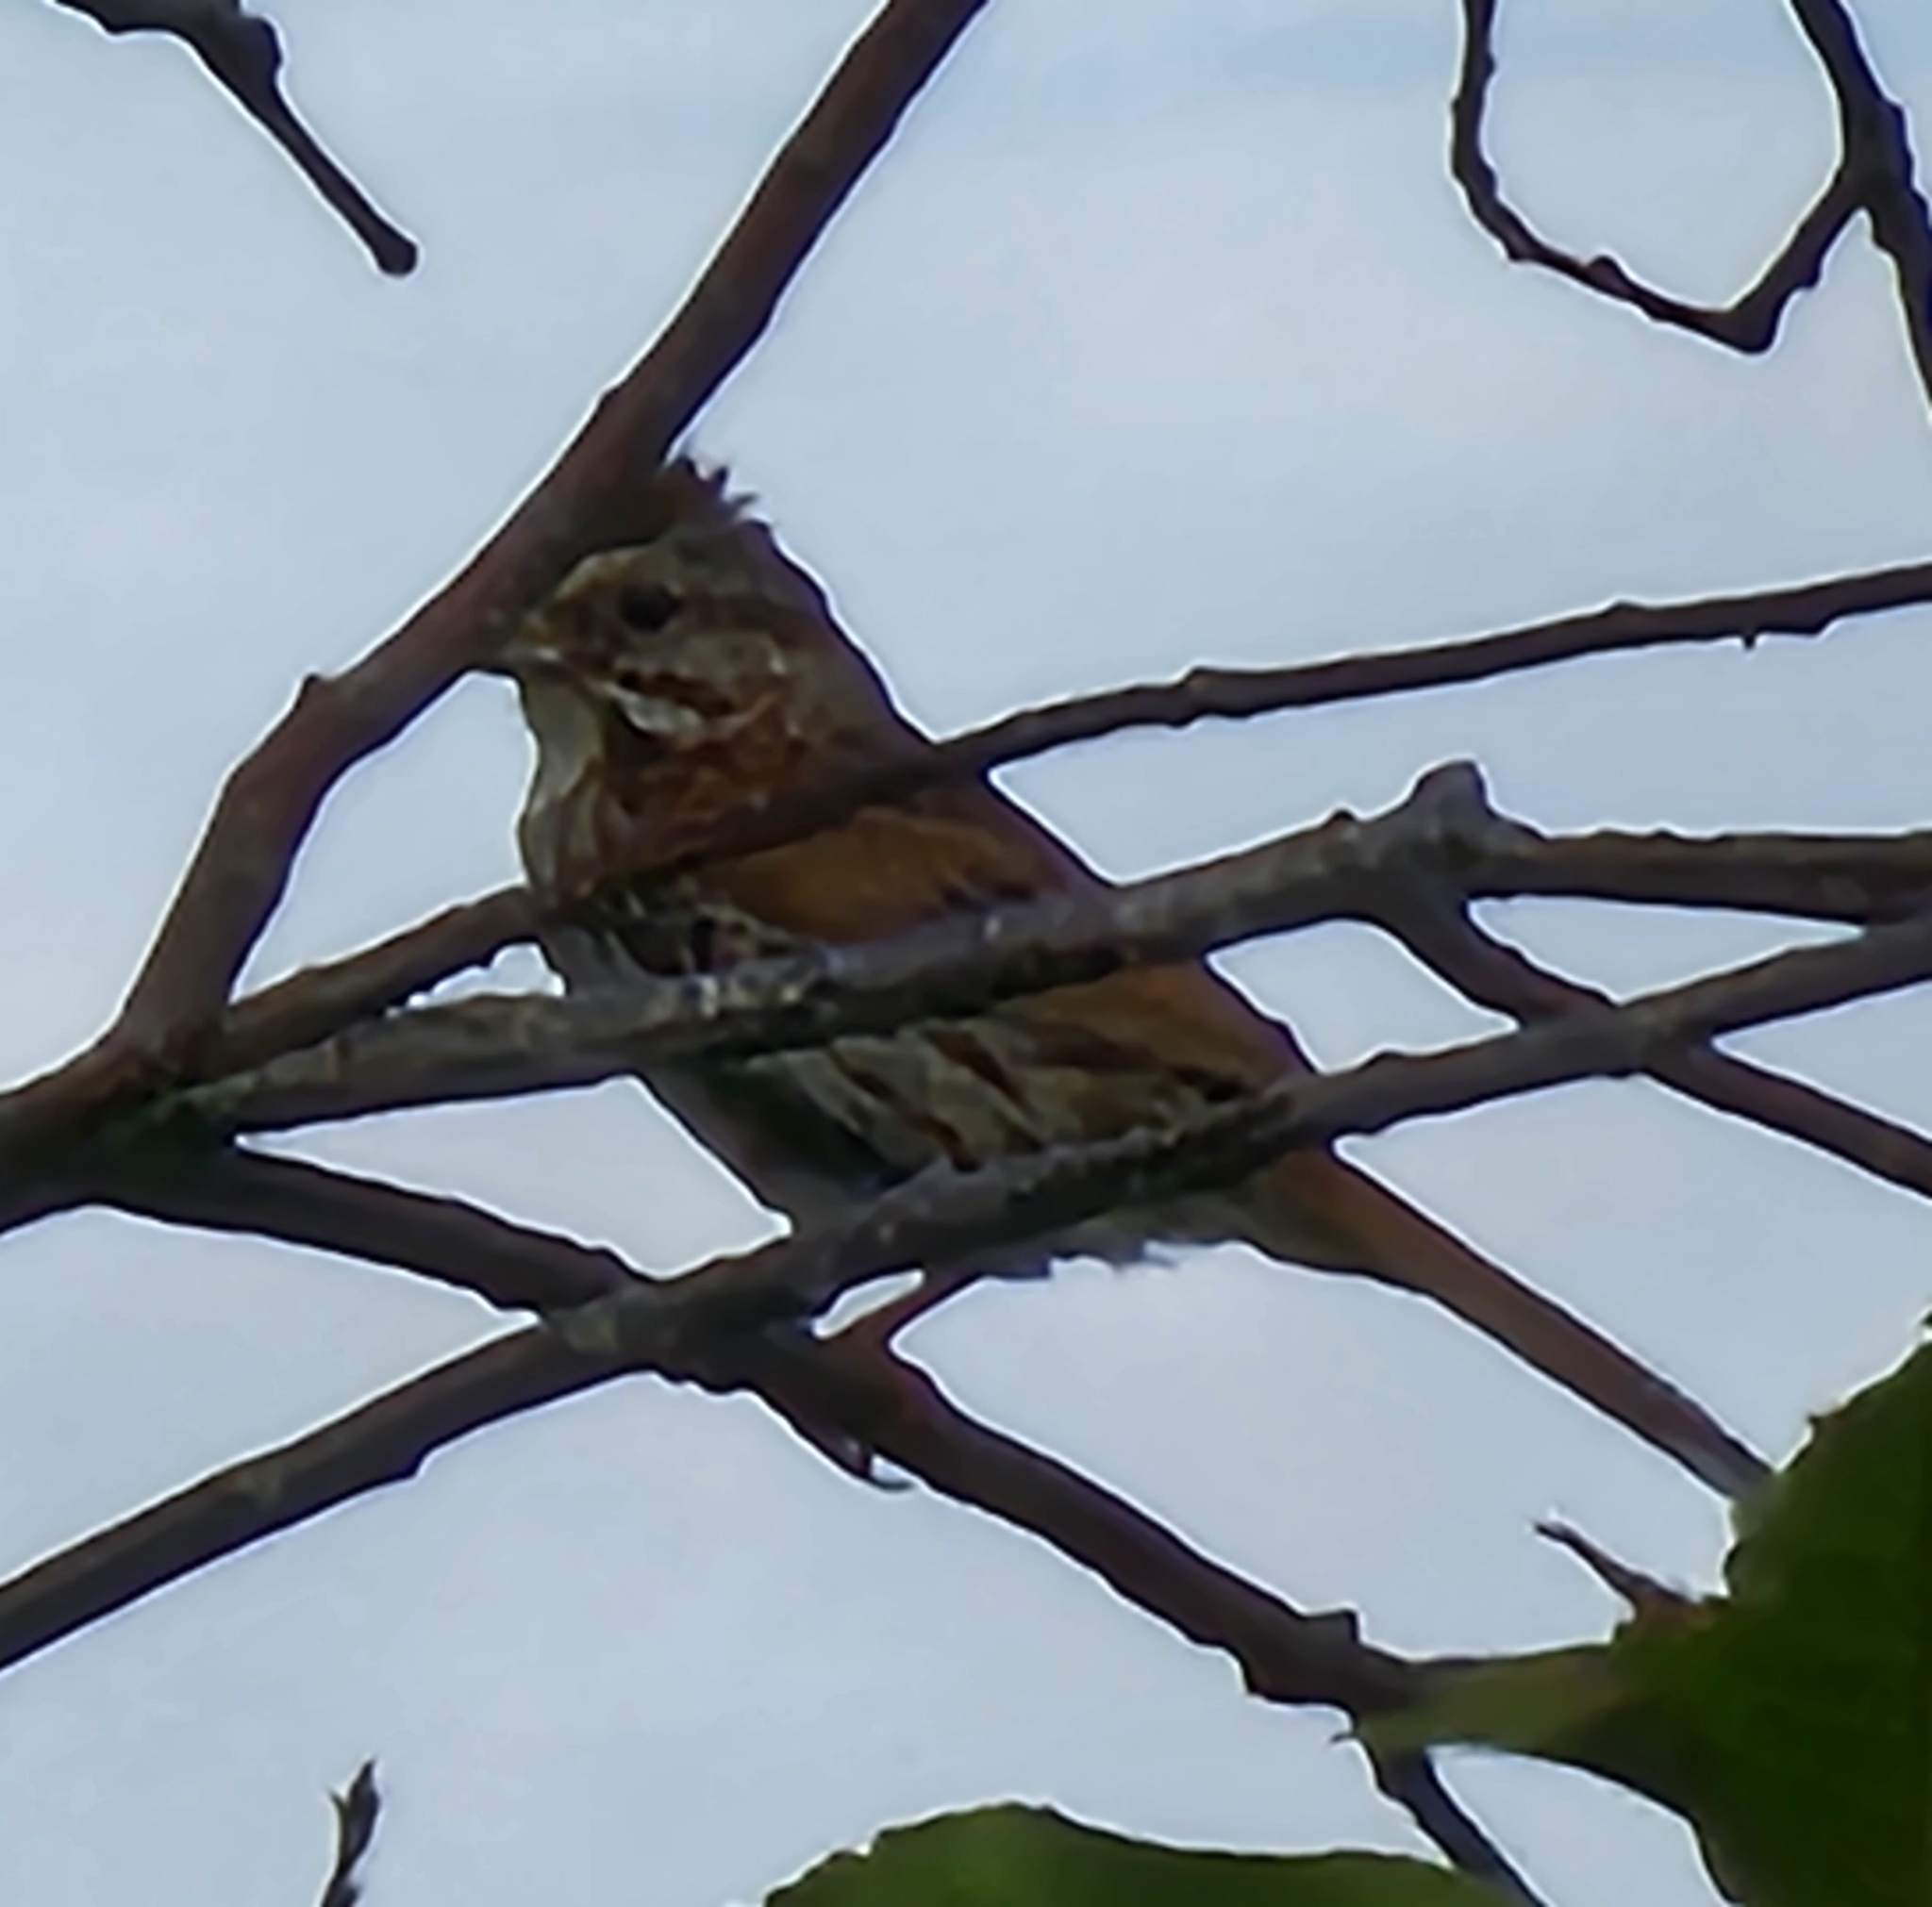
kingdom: Animalia
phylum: Chordata
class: Aves
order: Passeriformes
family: Passerellidae
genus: Melospiza
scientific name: Melospiza melodia
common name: Song sparrow
